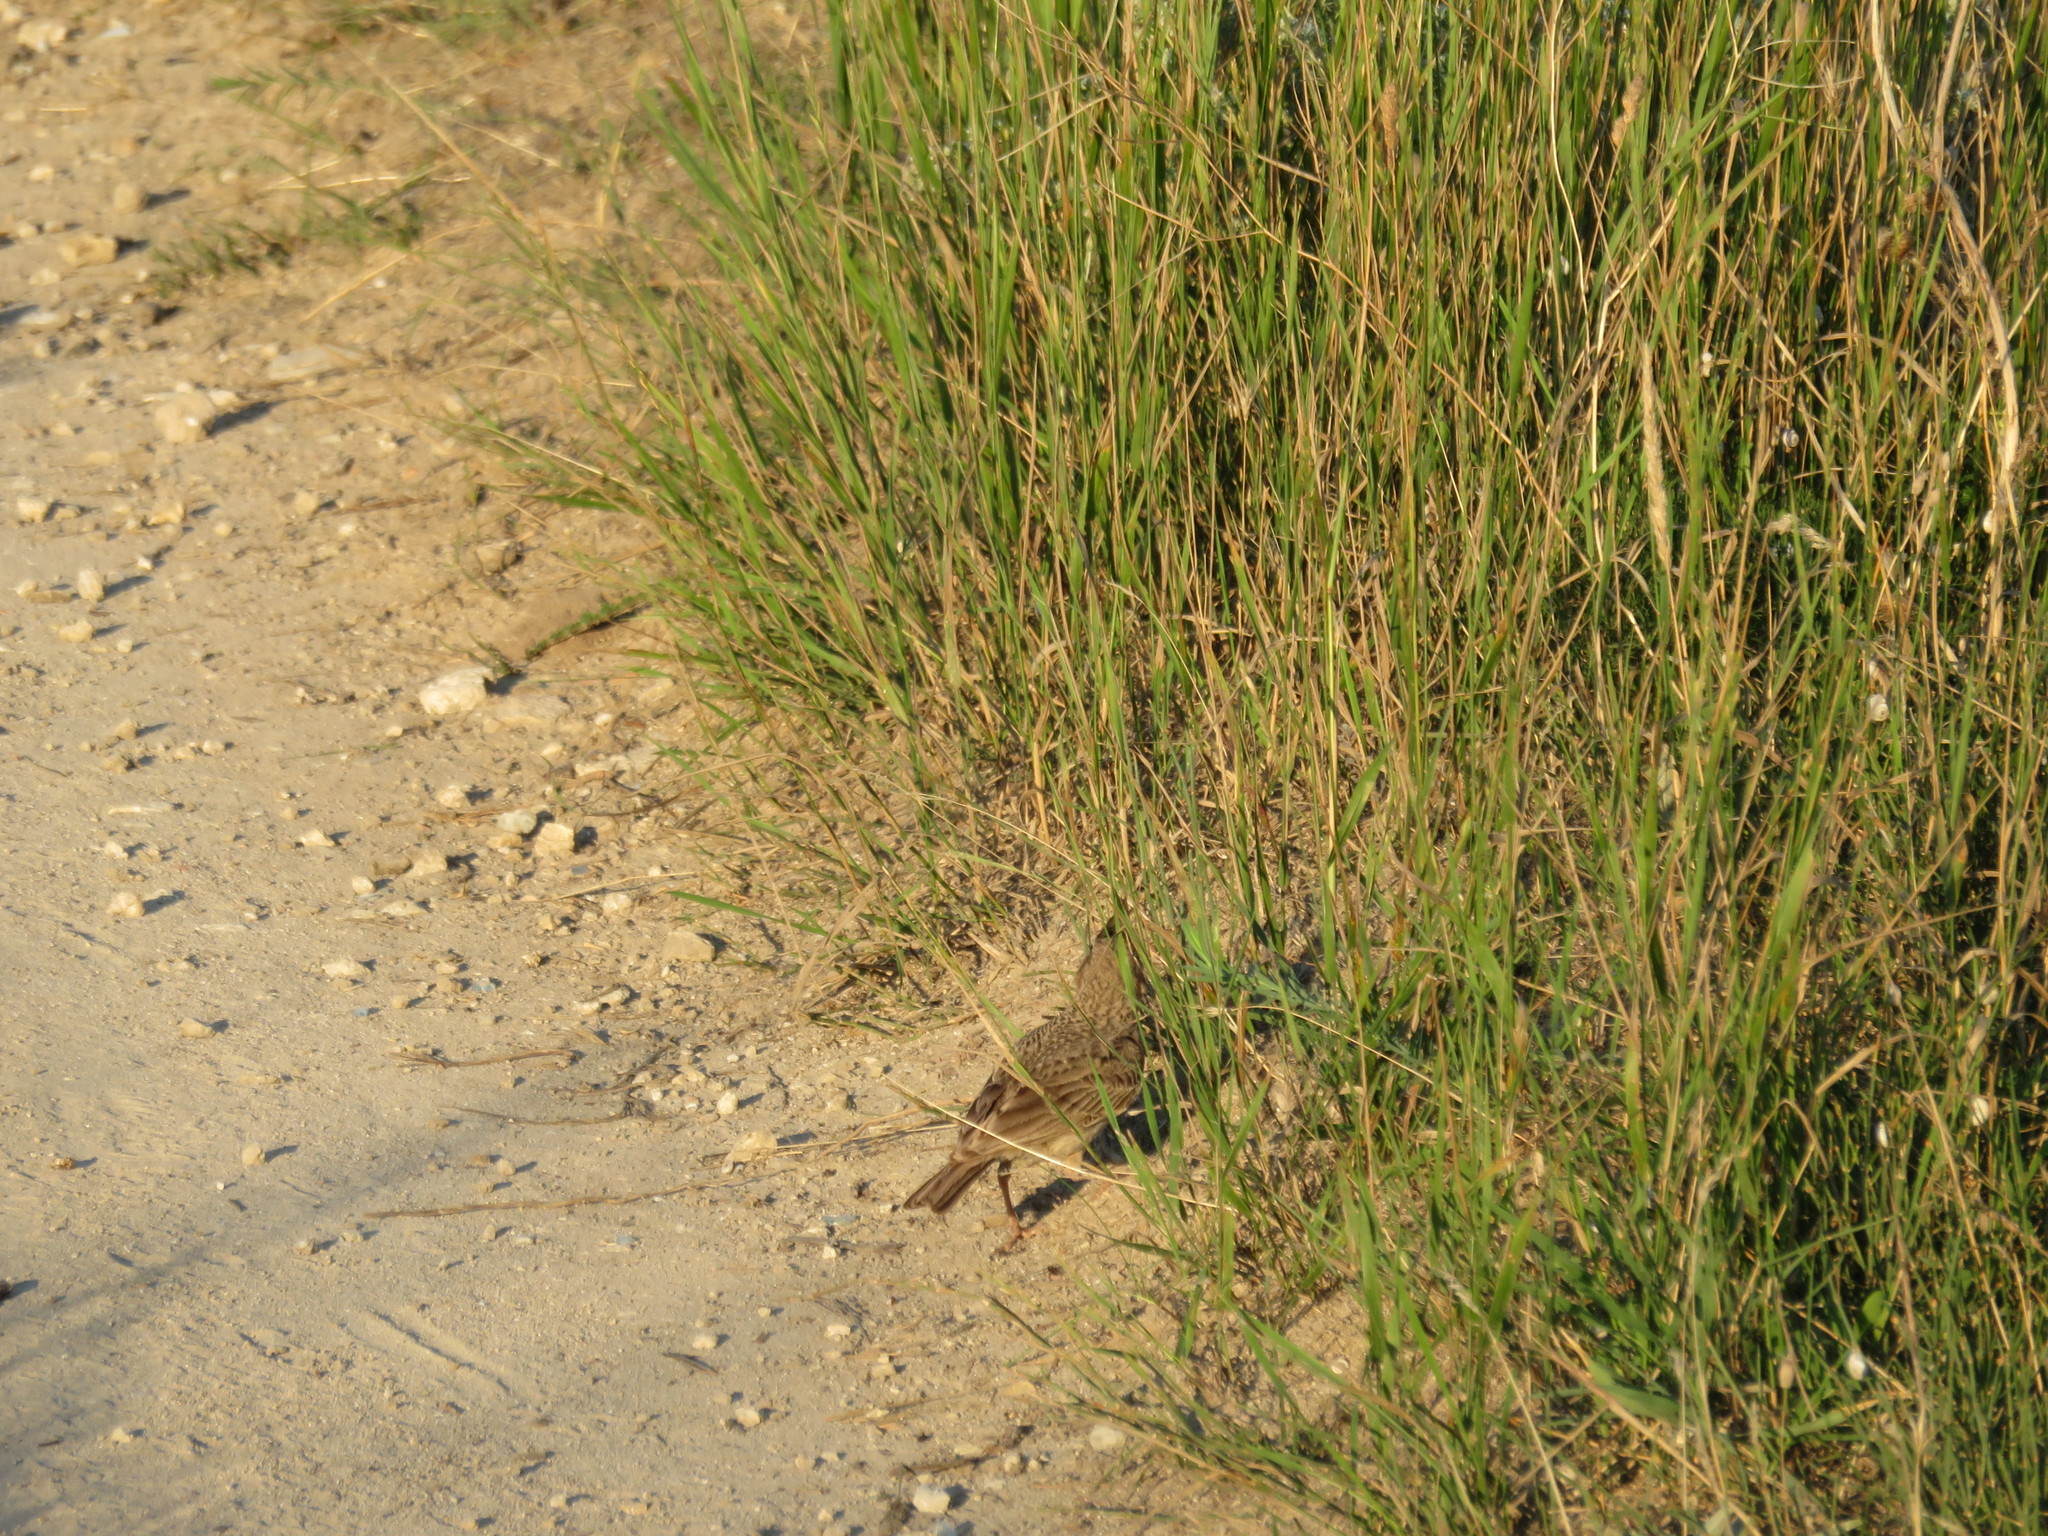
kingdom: Animalia
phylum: Chordata
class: Aves
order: Passeriformes
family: Alaudidae
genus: Galerida
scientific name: Galerida cristata
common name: Crested lark
